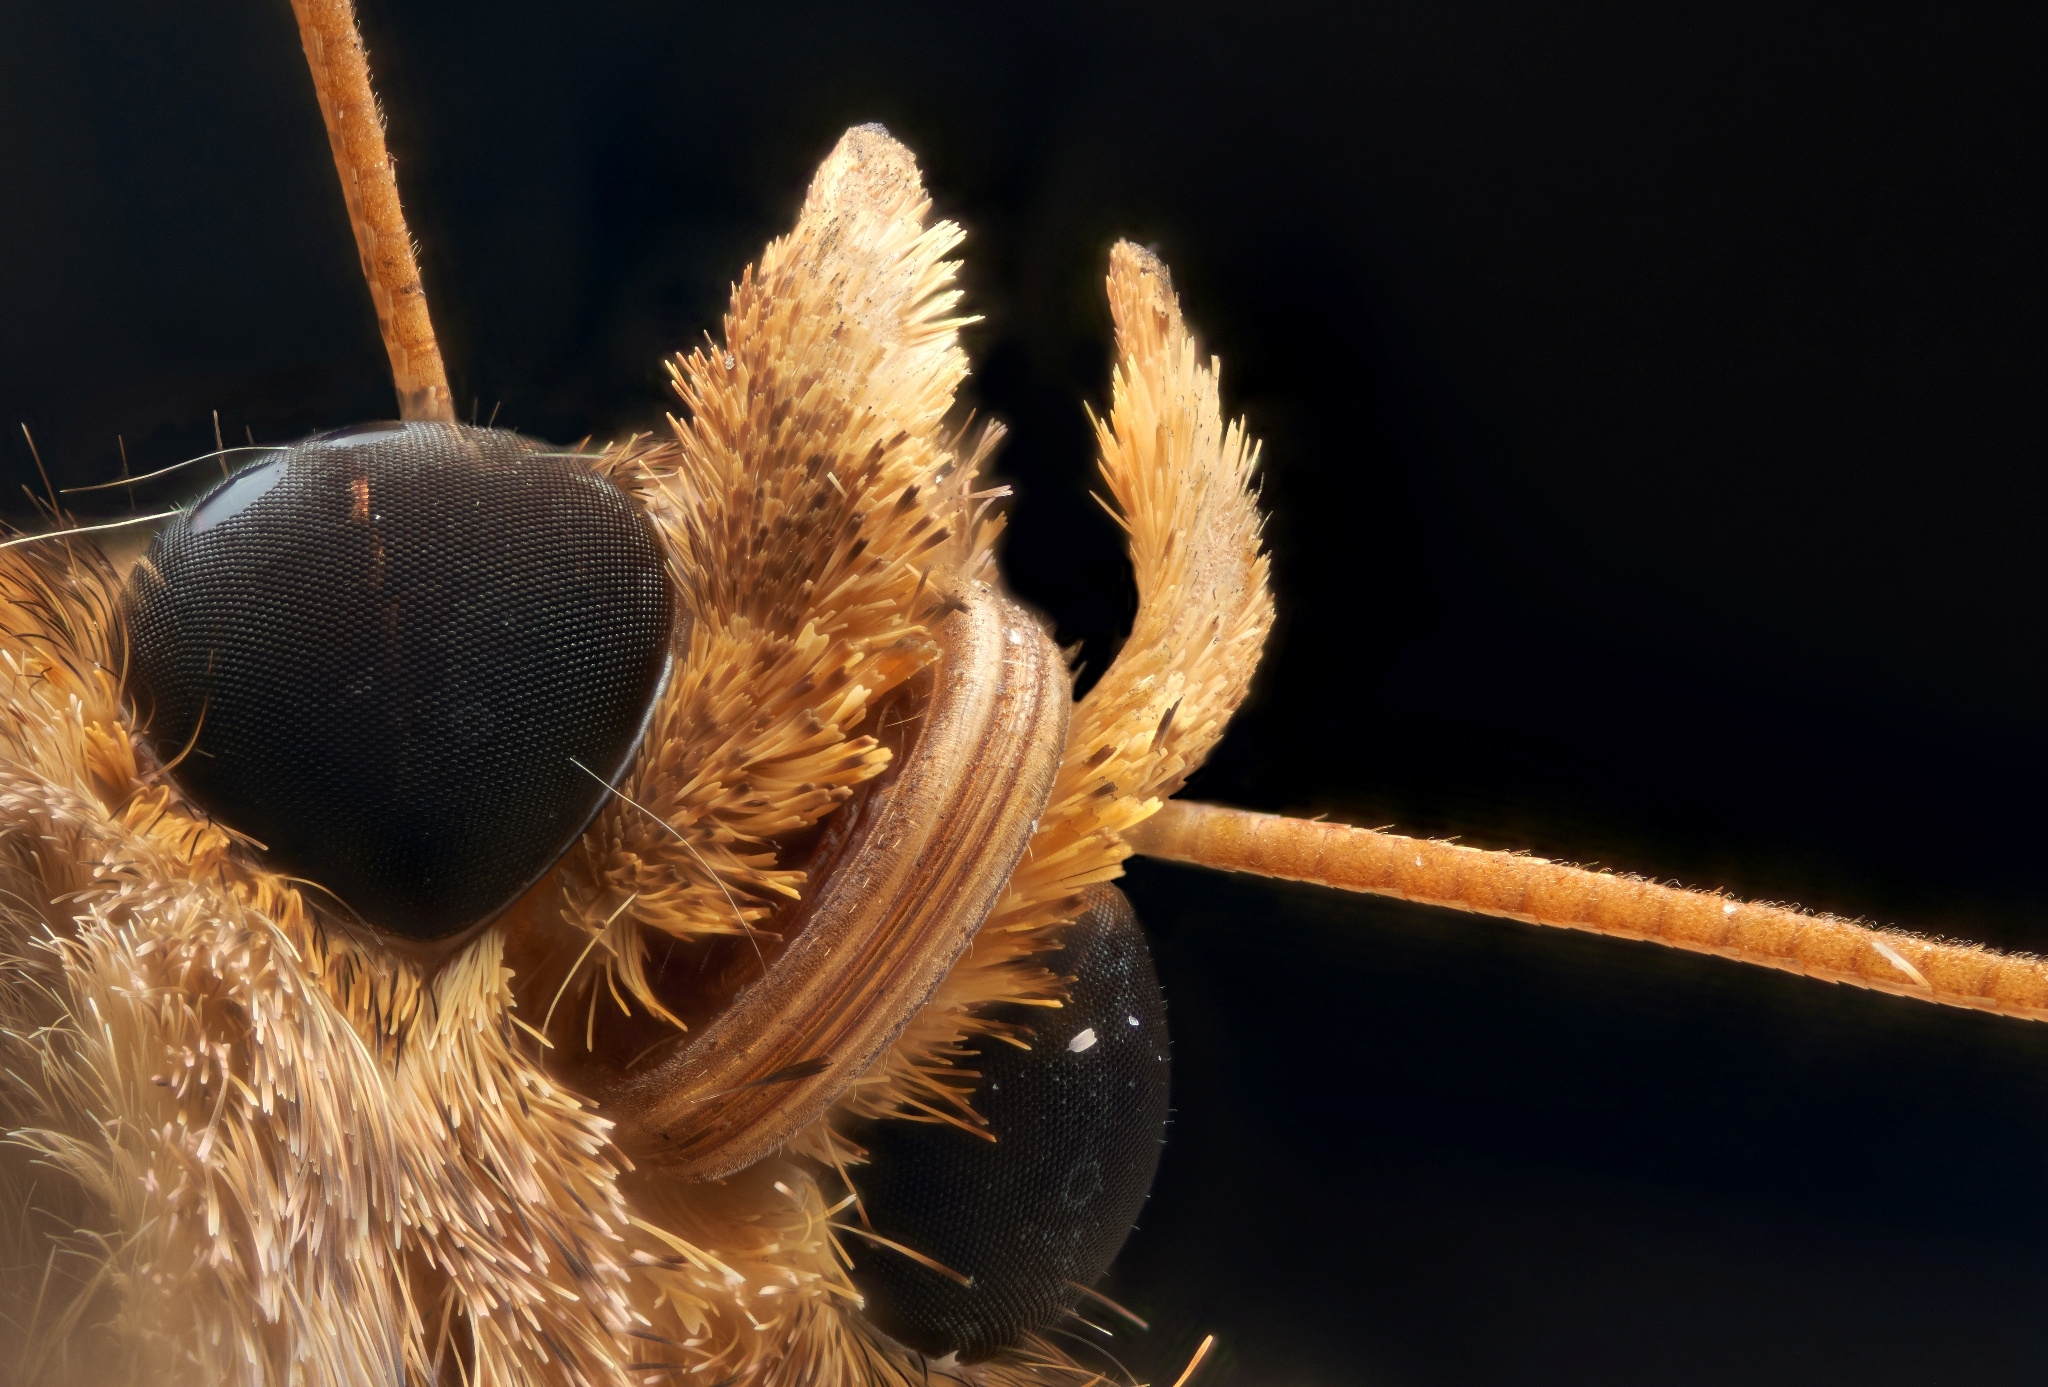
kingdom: Animalia
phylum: Arthropoda
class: Insecta
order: Lepidoptera
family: Noctuidae
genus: Chrysodeixis
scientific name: Chrysodeixis chalcites
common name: Golden twin-spot
